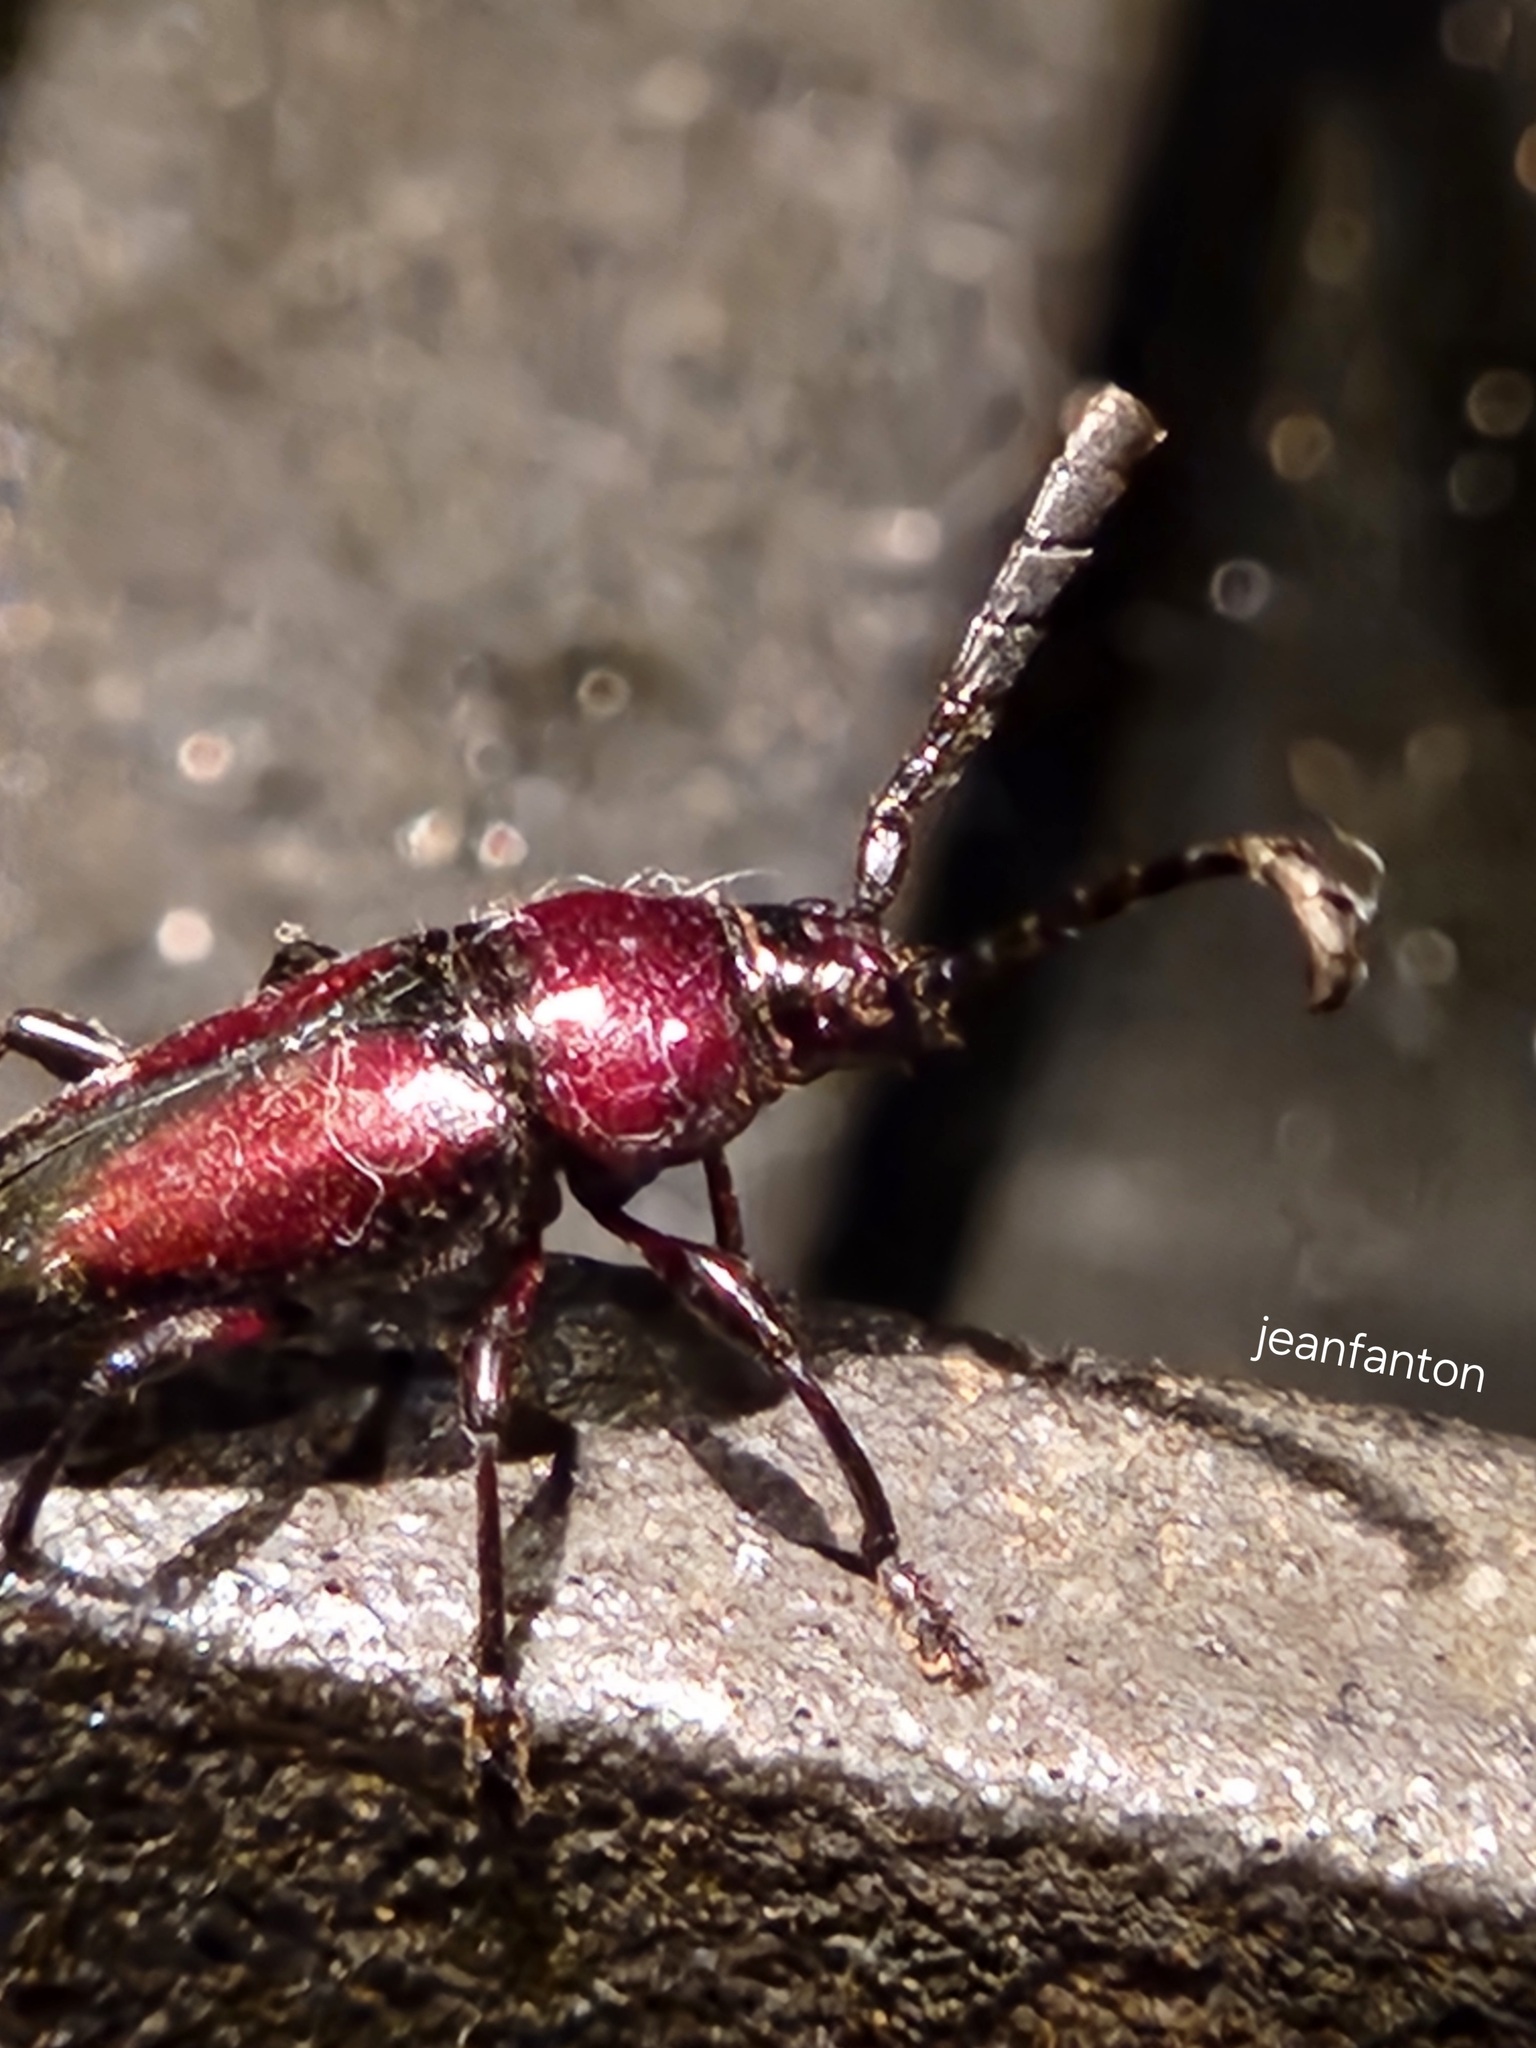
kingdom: Animalia
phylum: Arthropoda
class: Insecta
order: Coleoptera
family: Cerambycidae
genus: Lissonotus
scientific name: Lissonotus spadiceus
